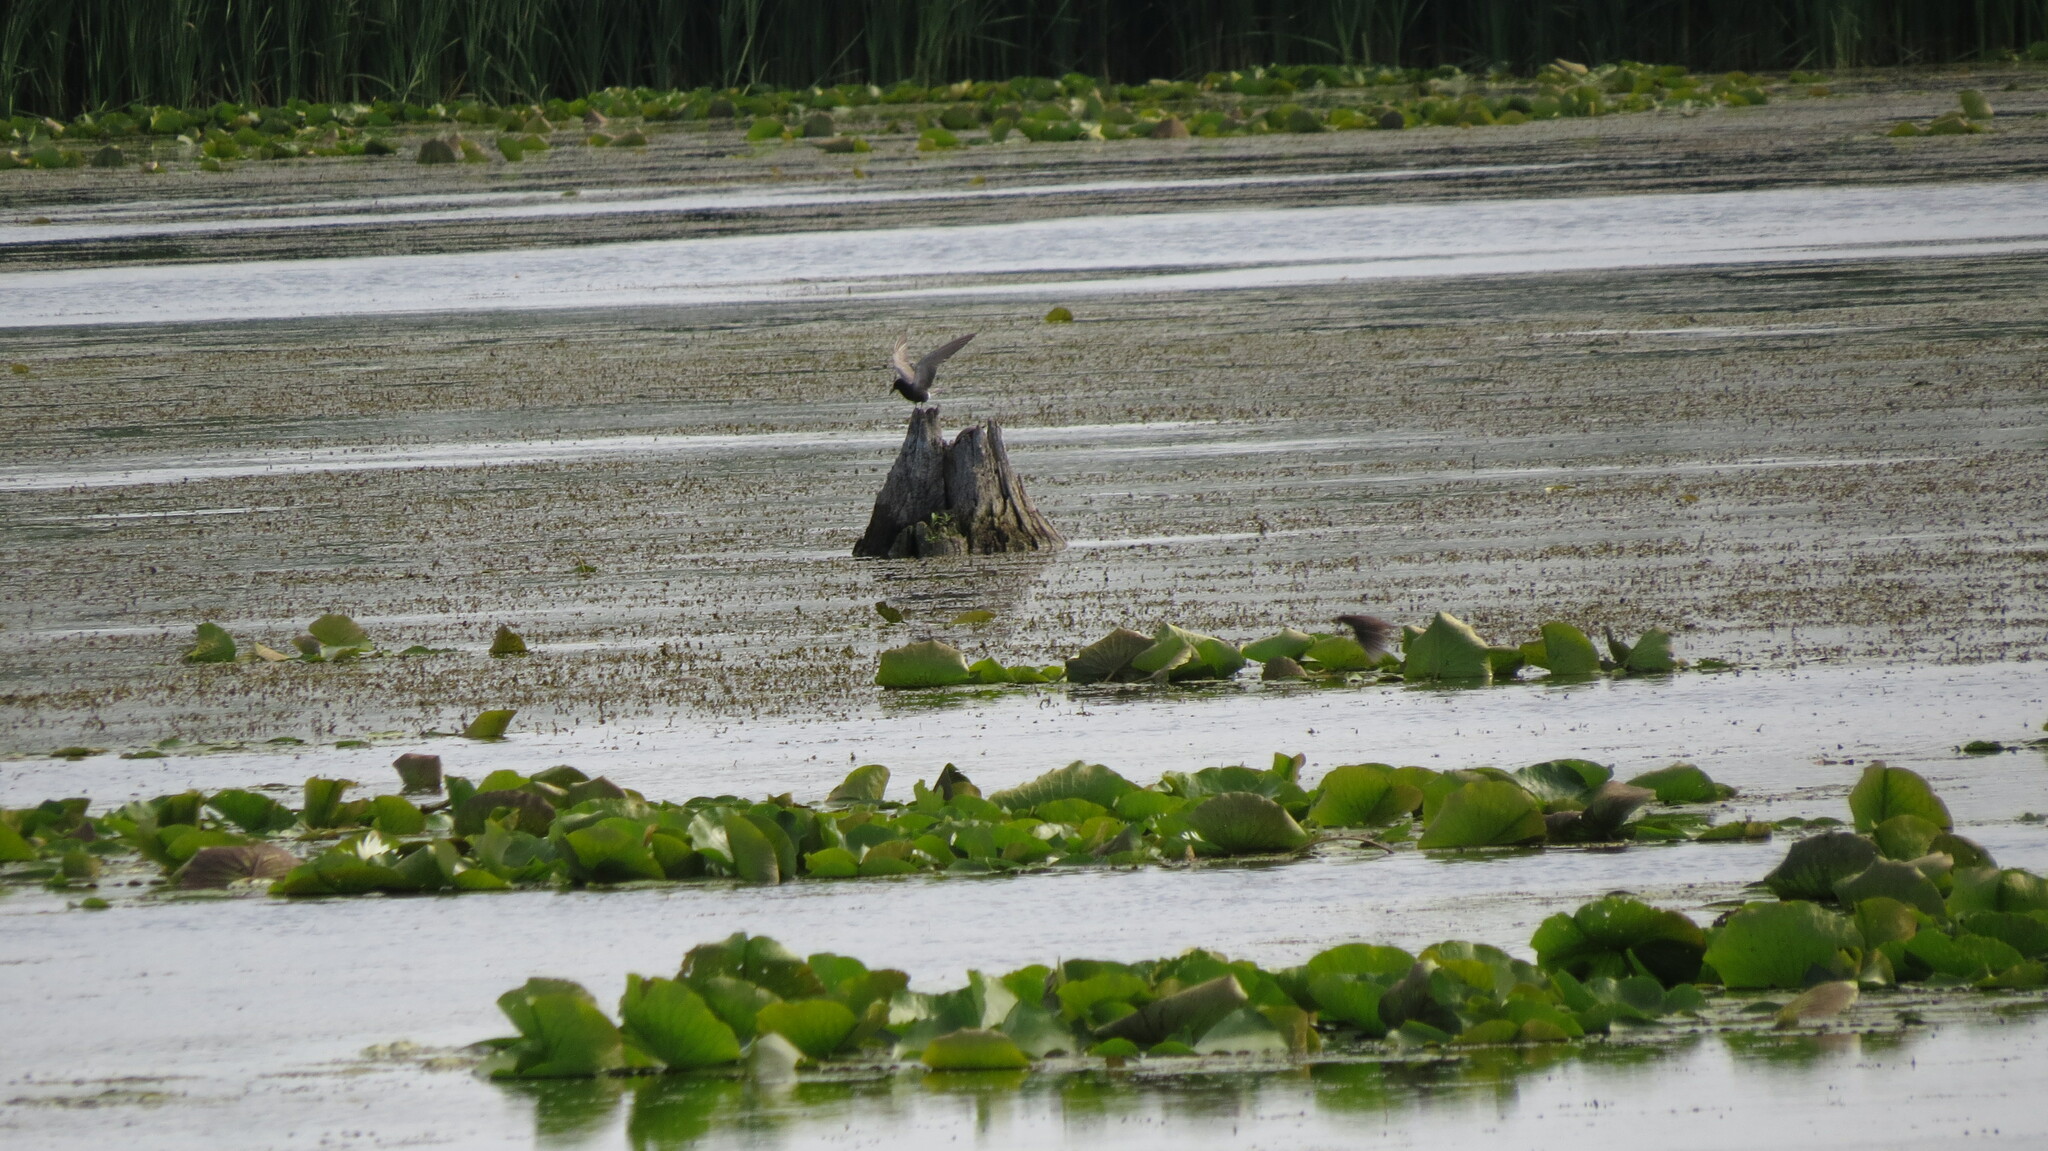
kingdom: Animalia
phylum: Chordata
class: Aves
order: Charadriiformes
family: Laridae
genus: Chlidonias
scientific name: Chlidonias niger
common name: Black tern
